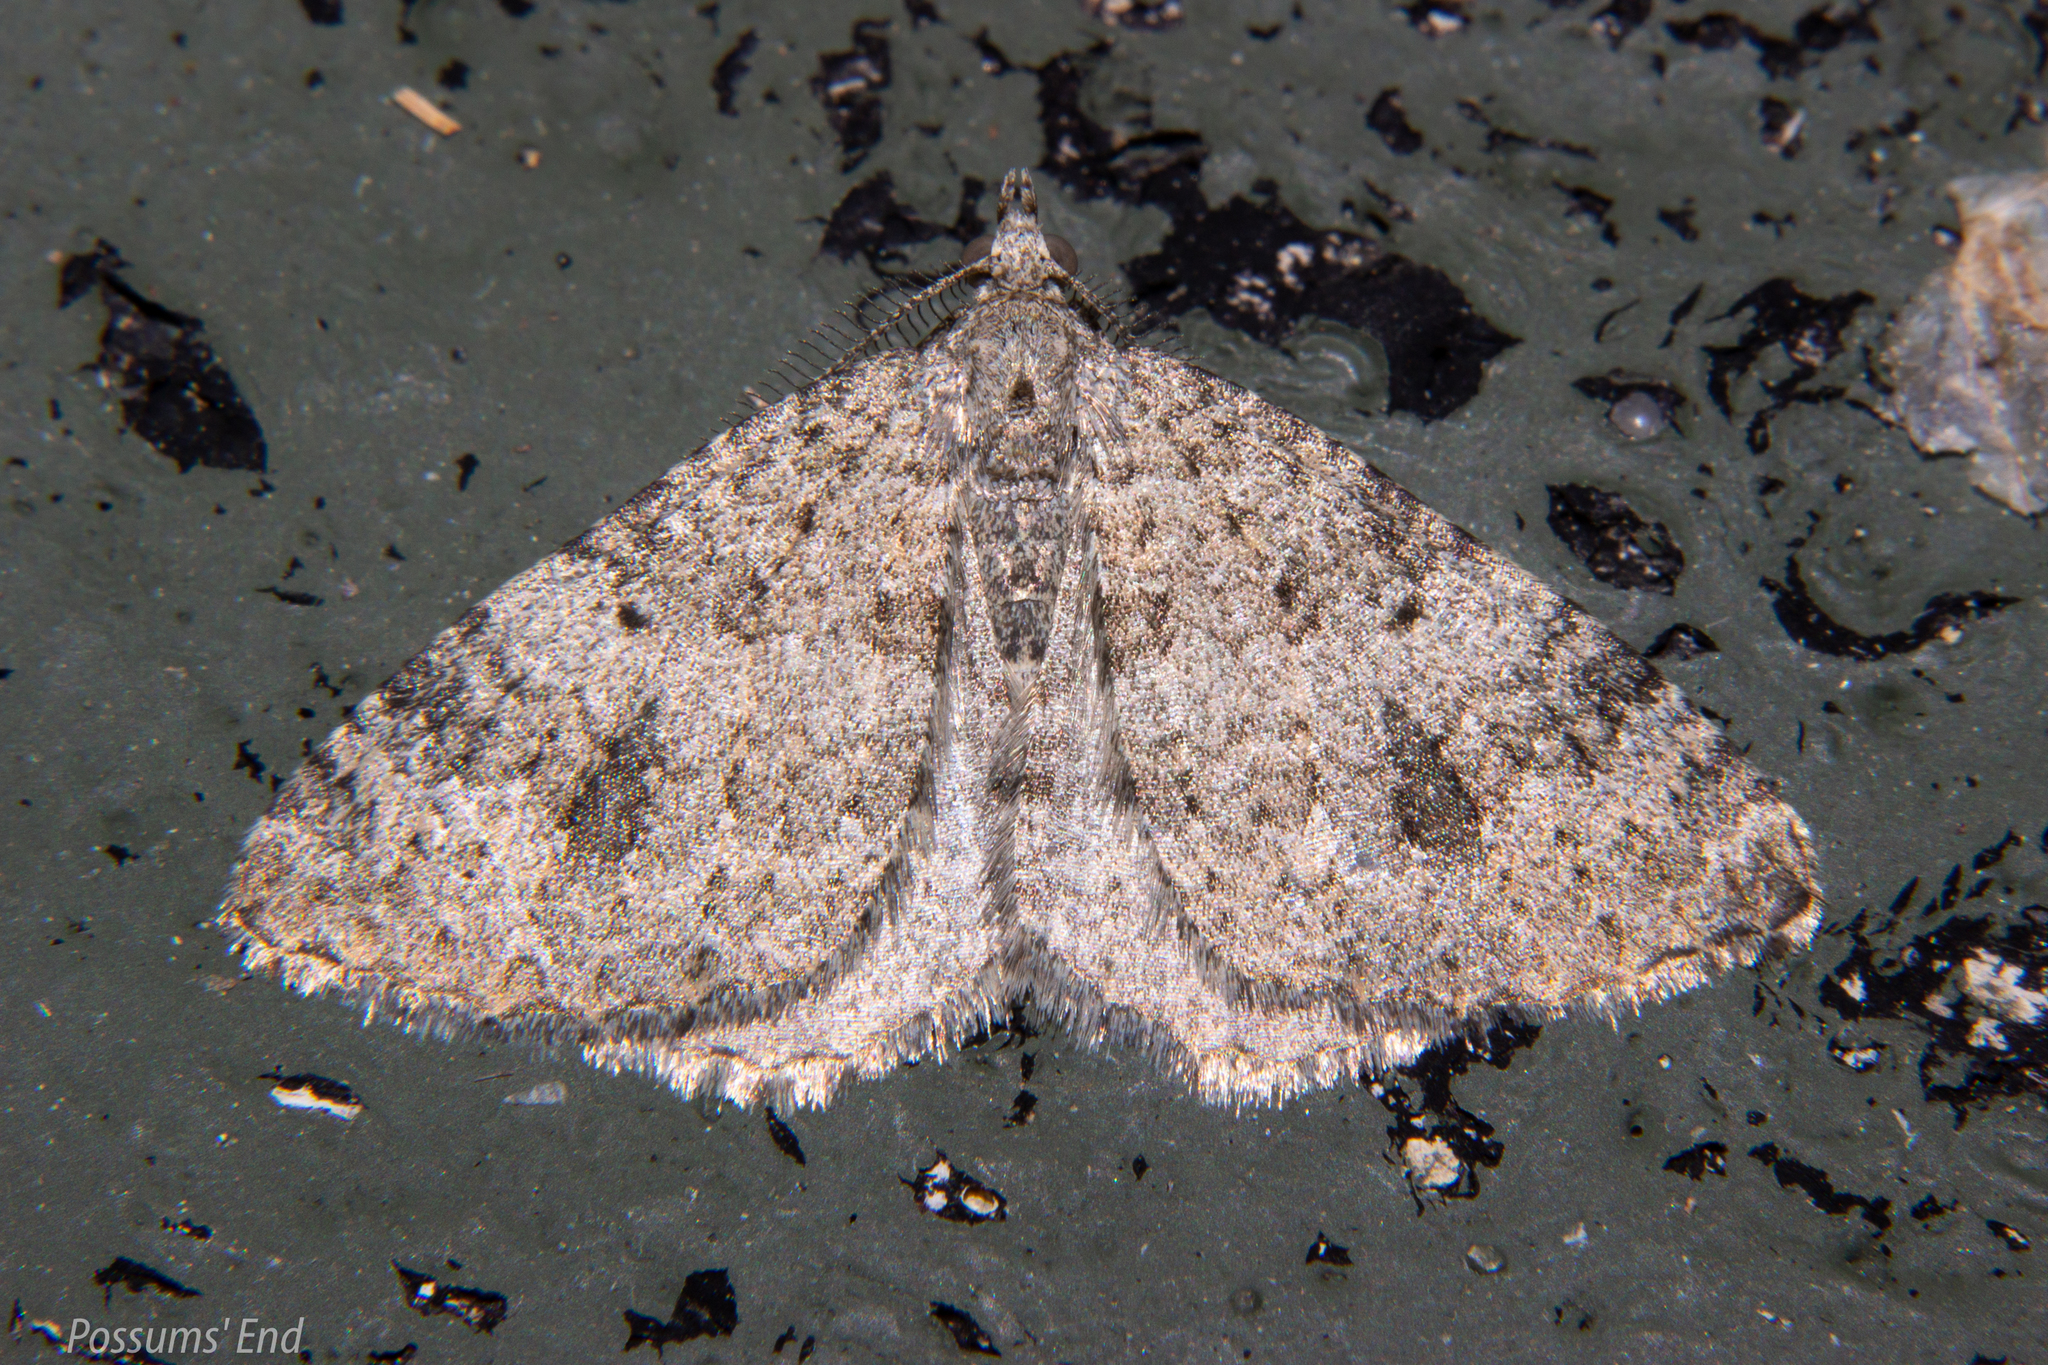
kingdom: Animalia
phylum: Arthropoda
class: Insecta
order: Lepidoptera
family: Geometridae
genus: Helastia
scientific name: Helastia corcularia
